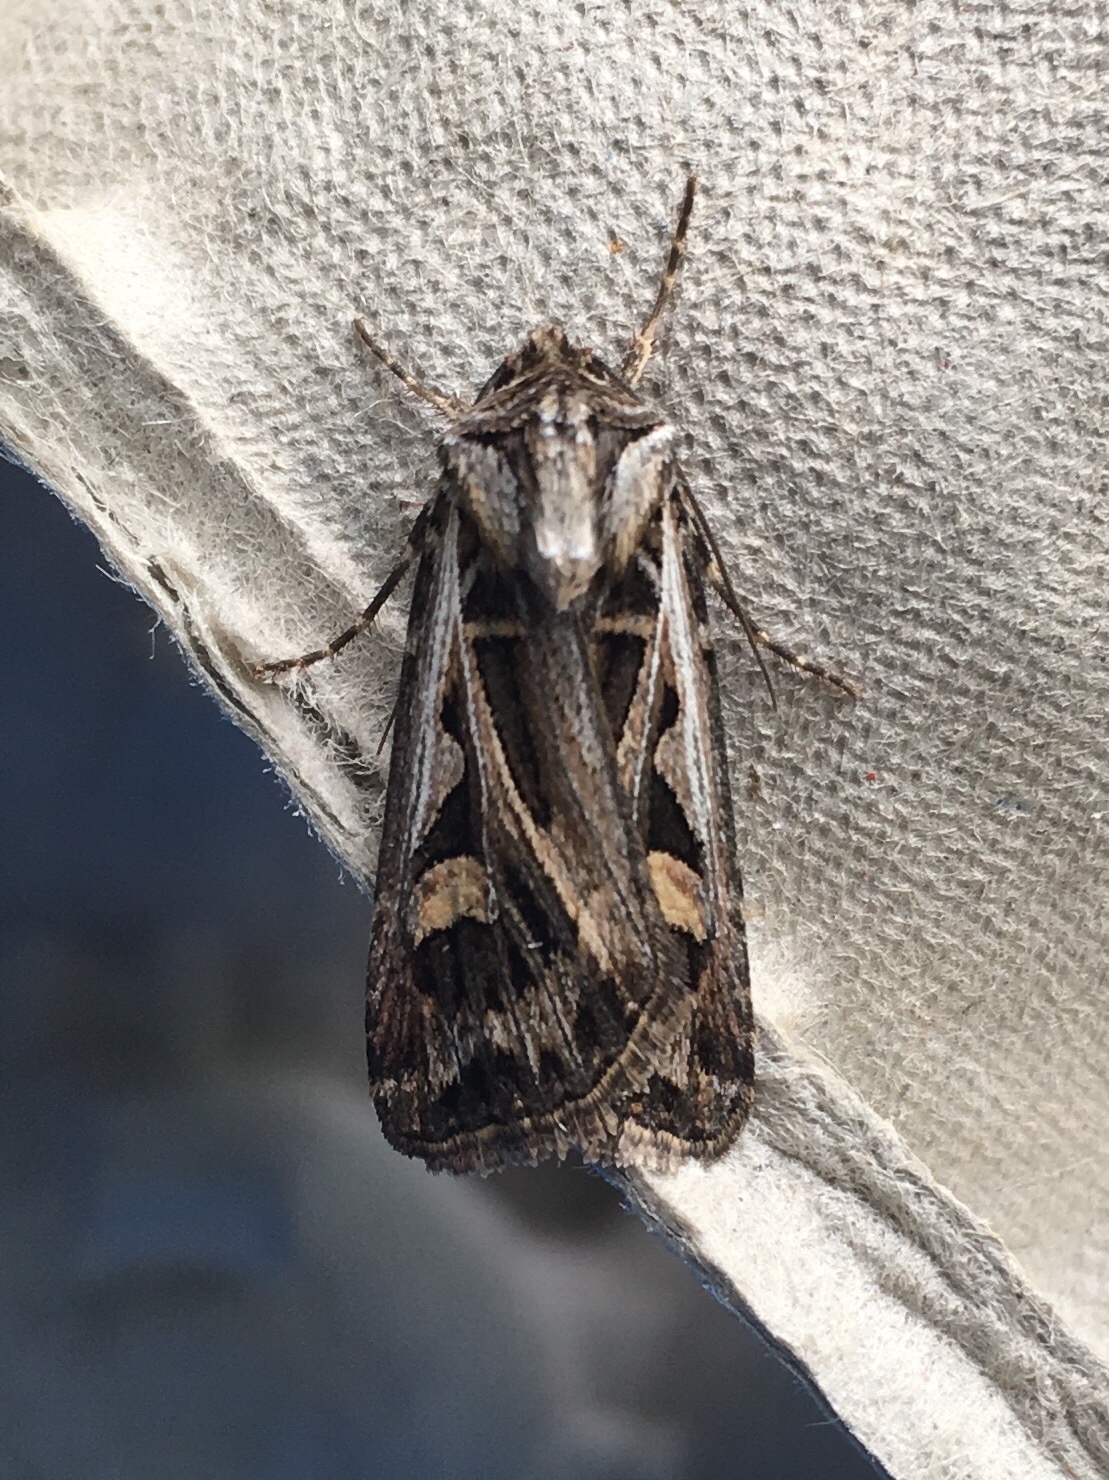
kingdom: Animalia
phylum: Arthropoda
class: Insecta
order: Lepidoptera
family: Noctuidae
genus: Feltia
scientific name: Feltia jaculifera
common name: Dingy cutworm moth
